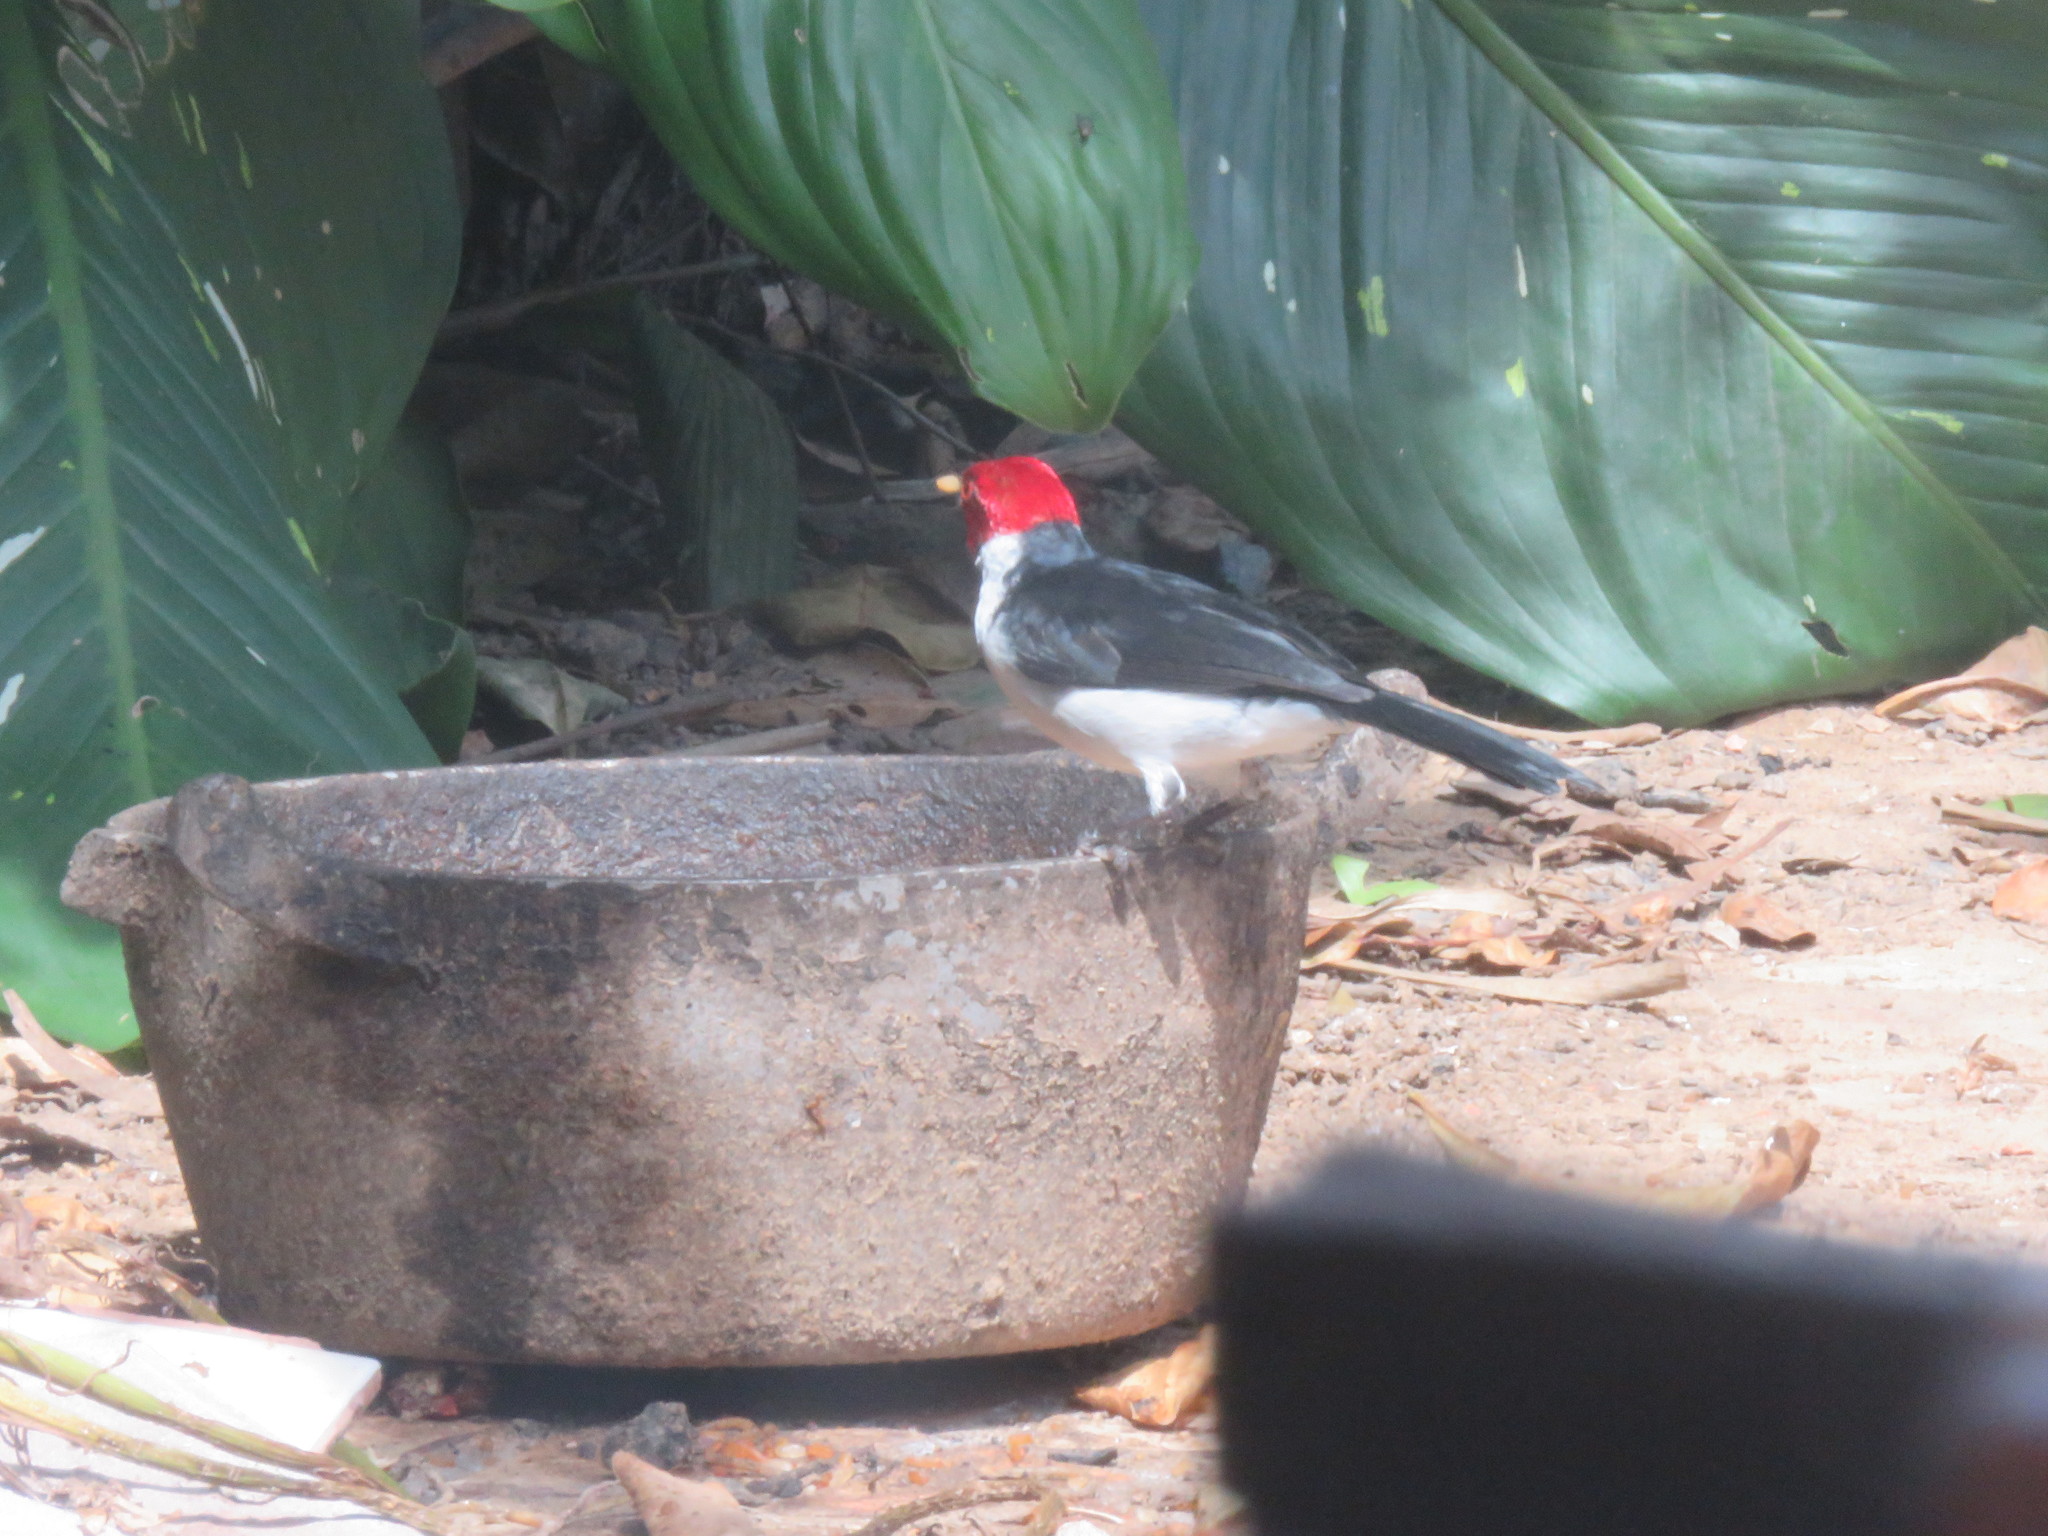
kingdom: Animalia
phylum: Chordata
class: Aves
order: Passeriformes
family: Thraupidae
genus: Paroaria
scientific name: Paroaria gularis
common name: Red-capped cardinal
